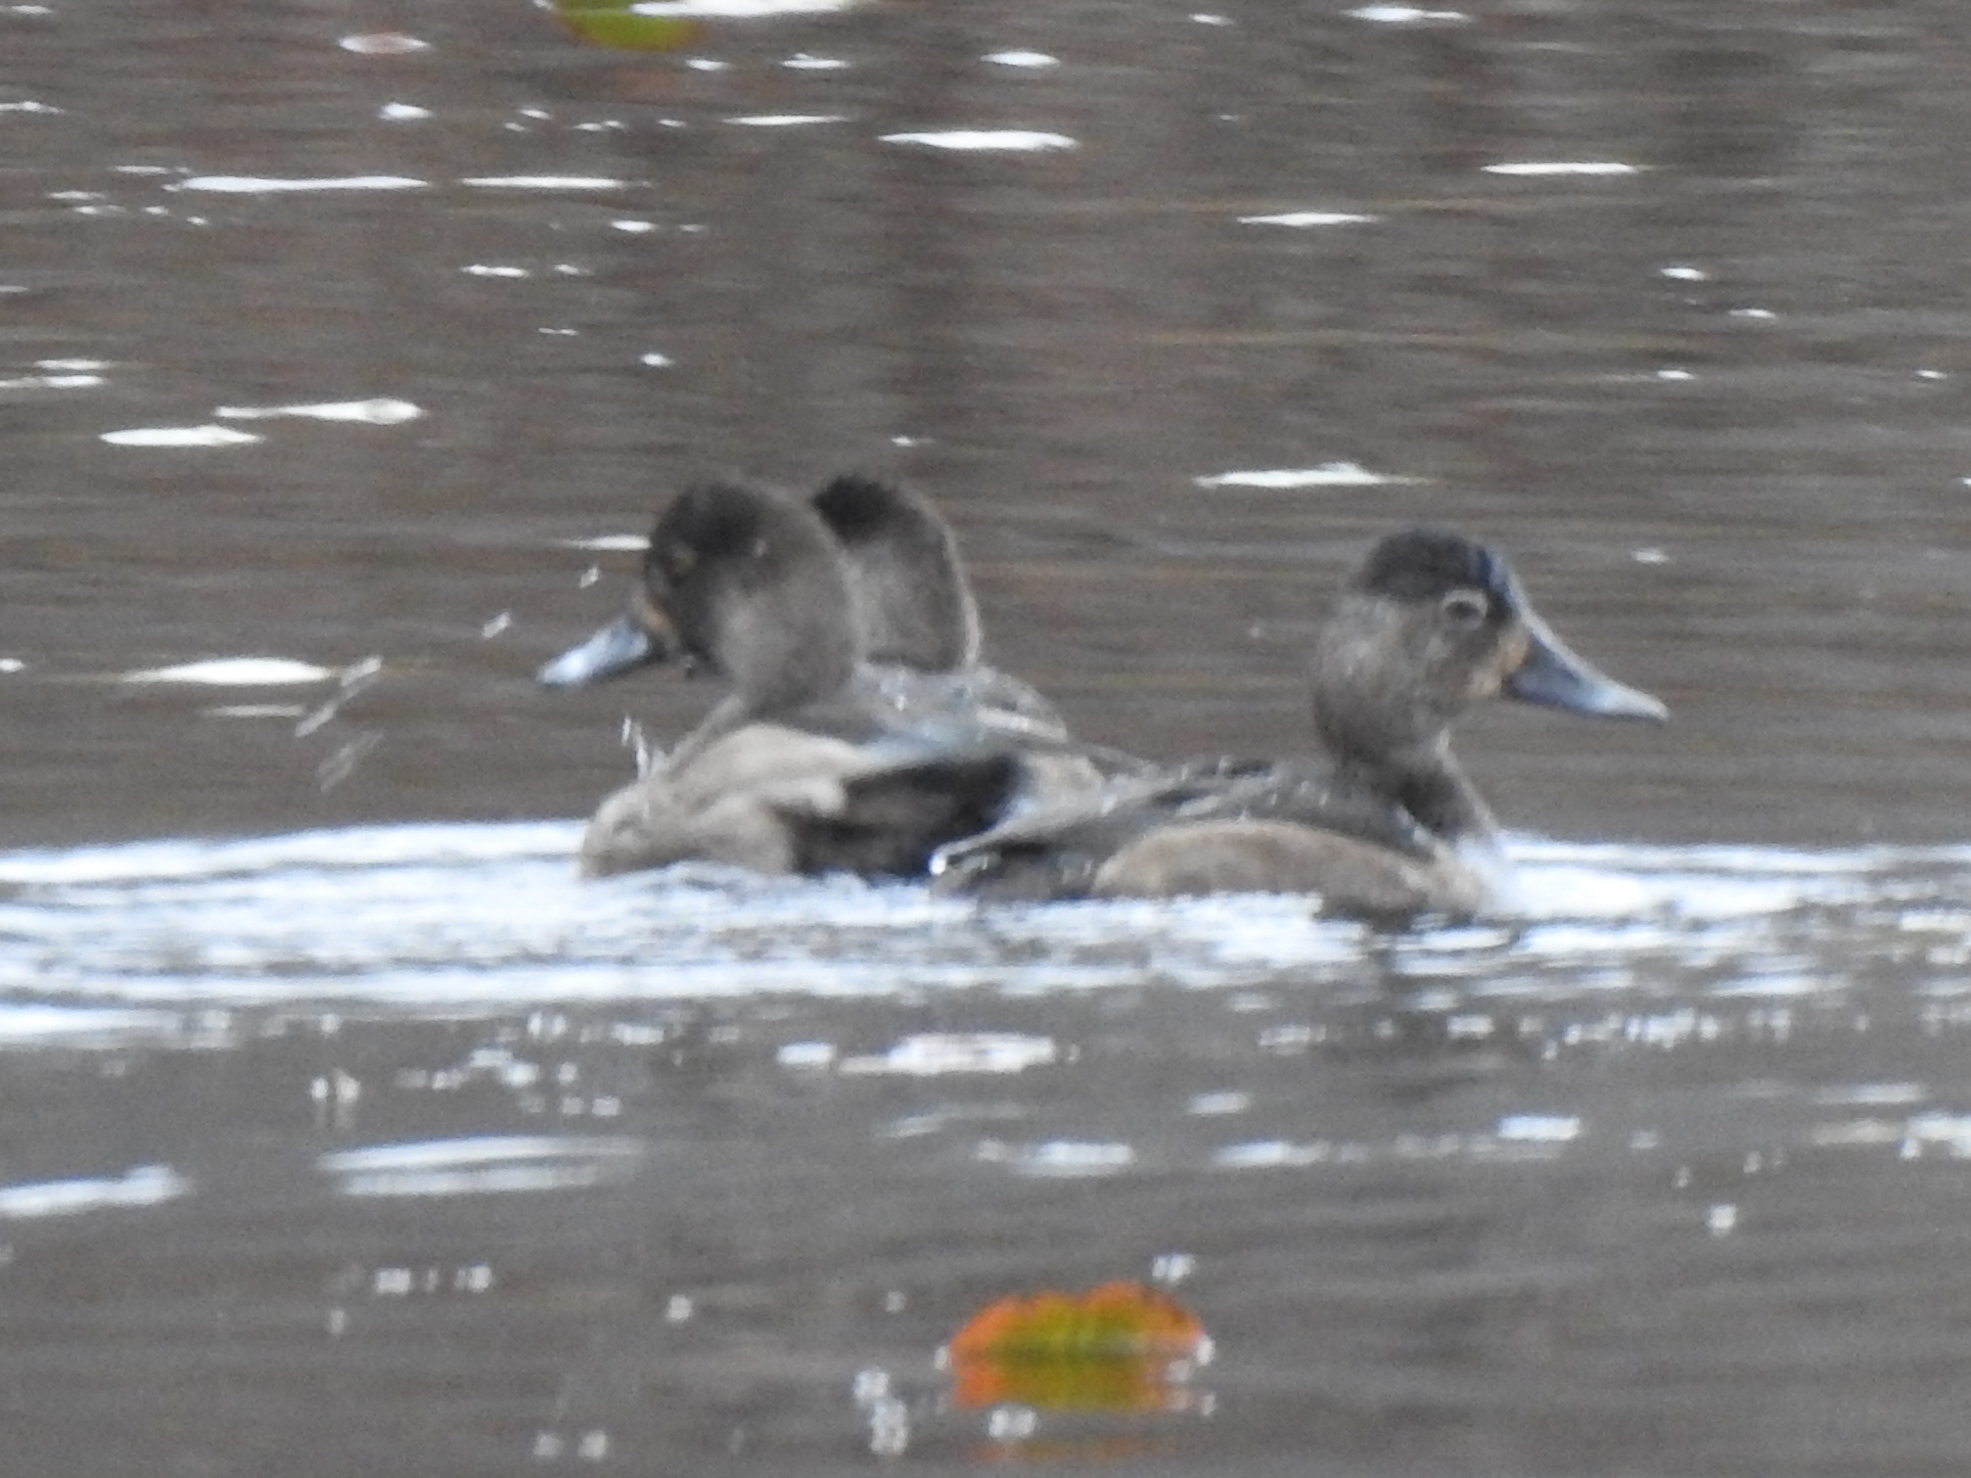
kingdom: Animalia
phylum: Chordata
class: Aves
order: Anseriformes
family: Anatidae
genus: Aythya
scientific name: Aythya collaris
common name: Ring-necked duck
